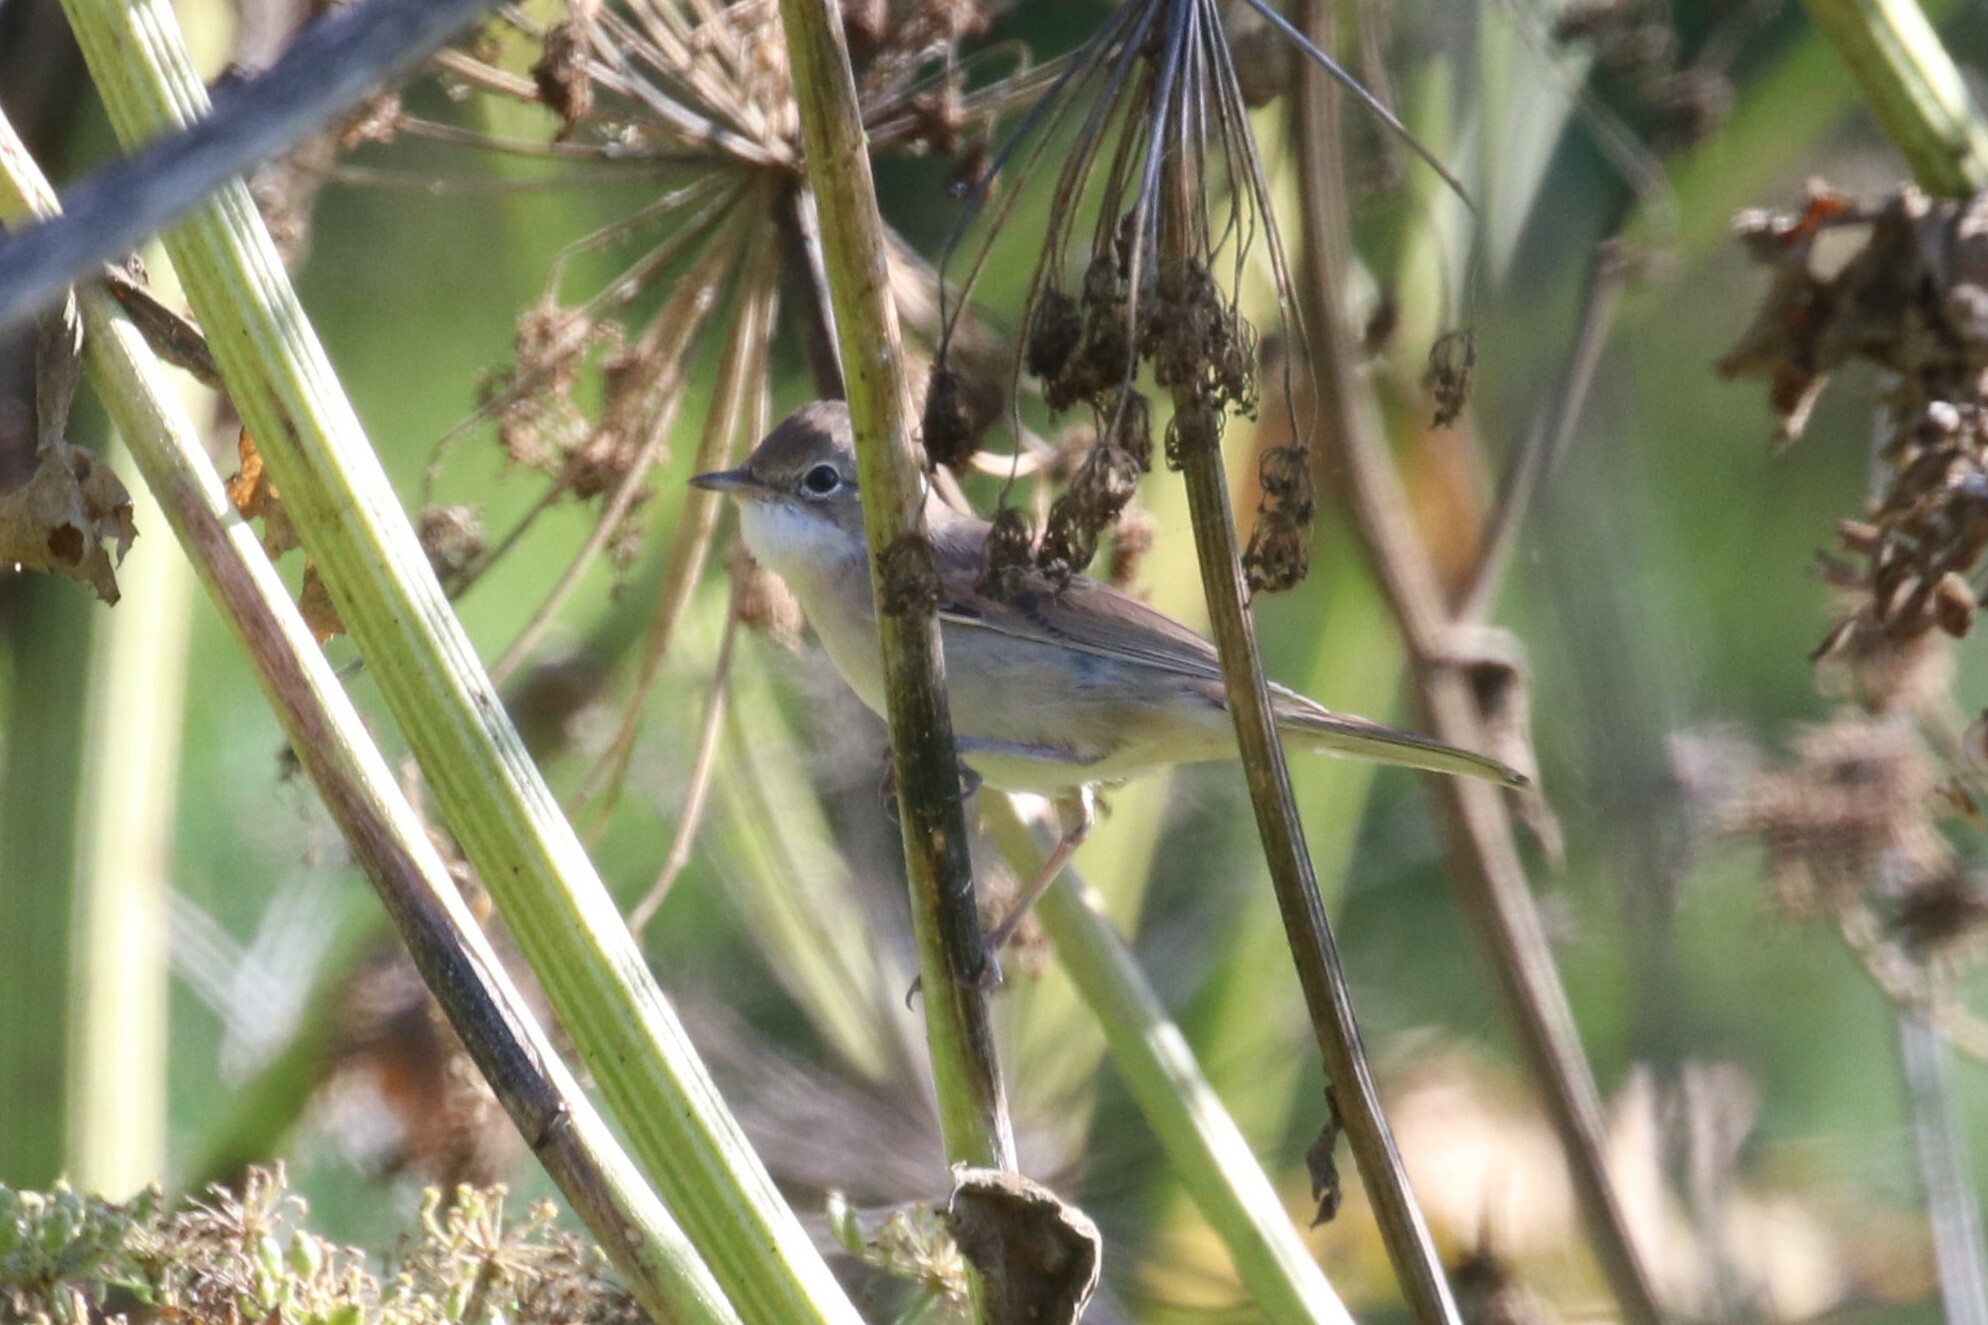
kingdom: Animalia
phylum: Chordata
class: Aves
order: Passeriformes
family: Sylviidae
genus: Sylvia
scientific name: Sylvia communis
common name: Common whitethroat
